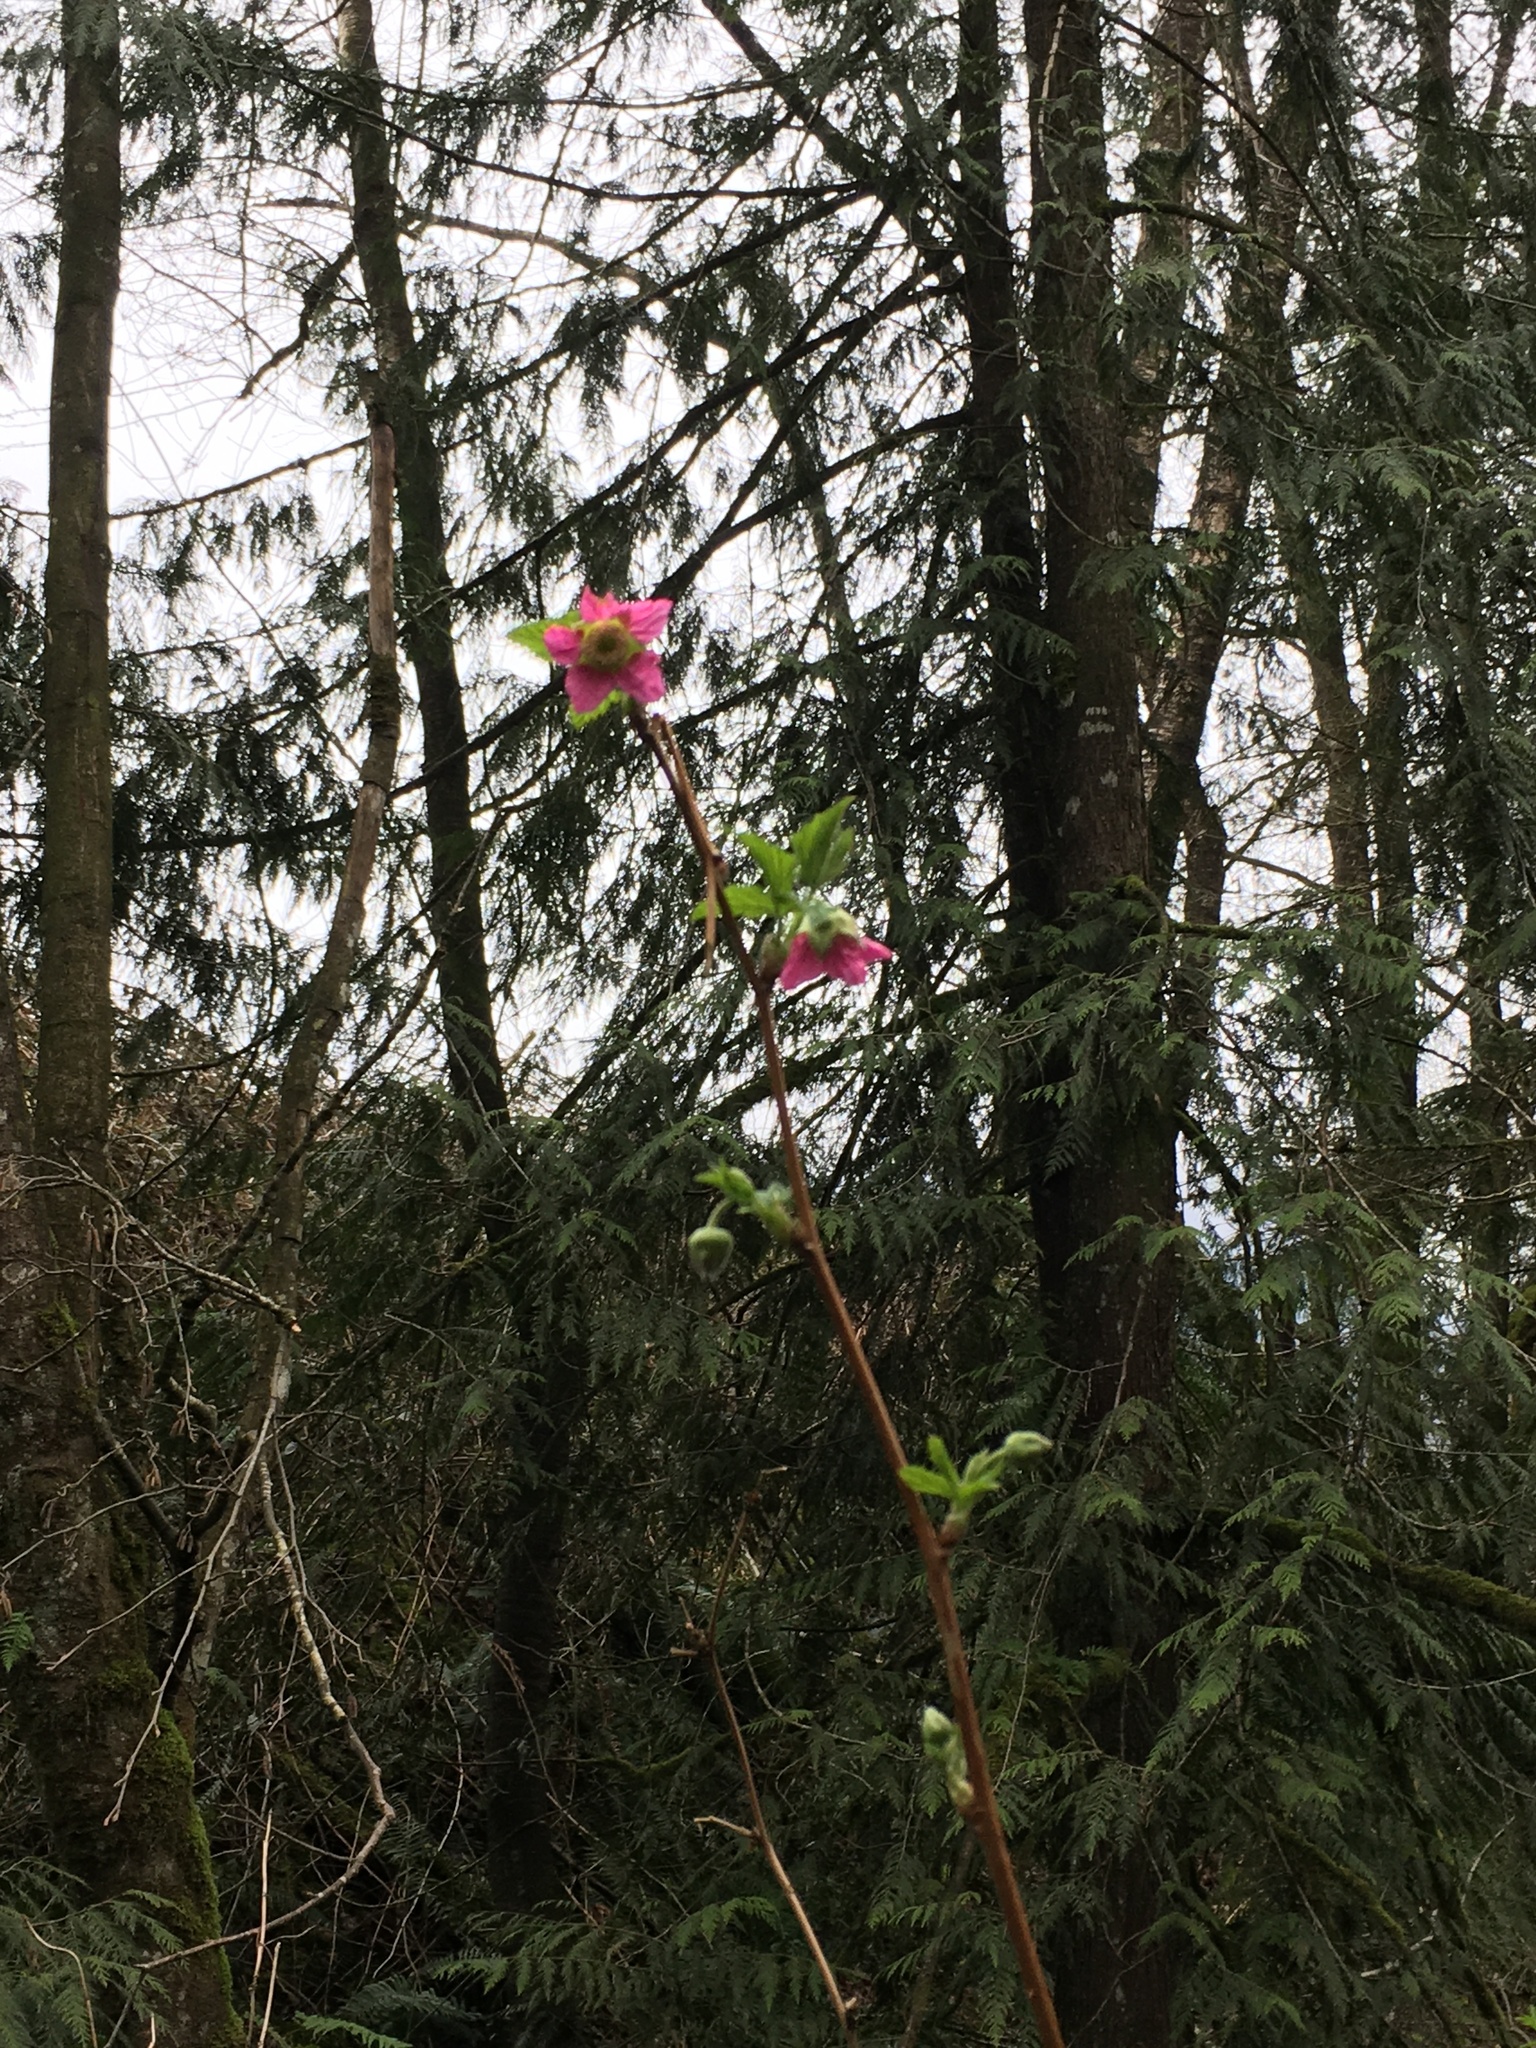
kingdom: Plantae
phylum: Tracheophyta
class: Magnoliopsida
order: Rosales
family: Rosaceae
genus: Rubus
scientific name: Rubus spectabilis
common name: Salmonberry
